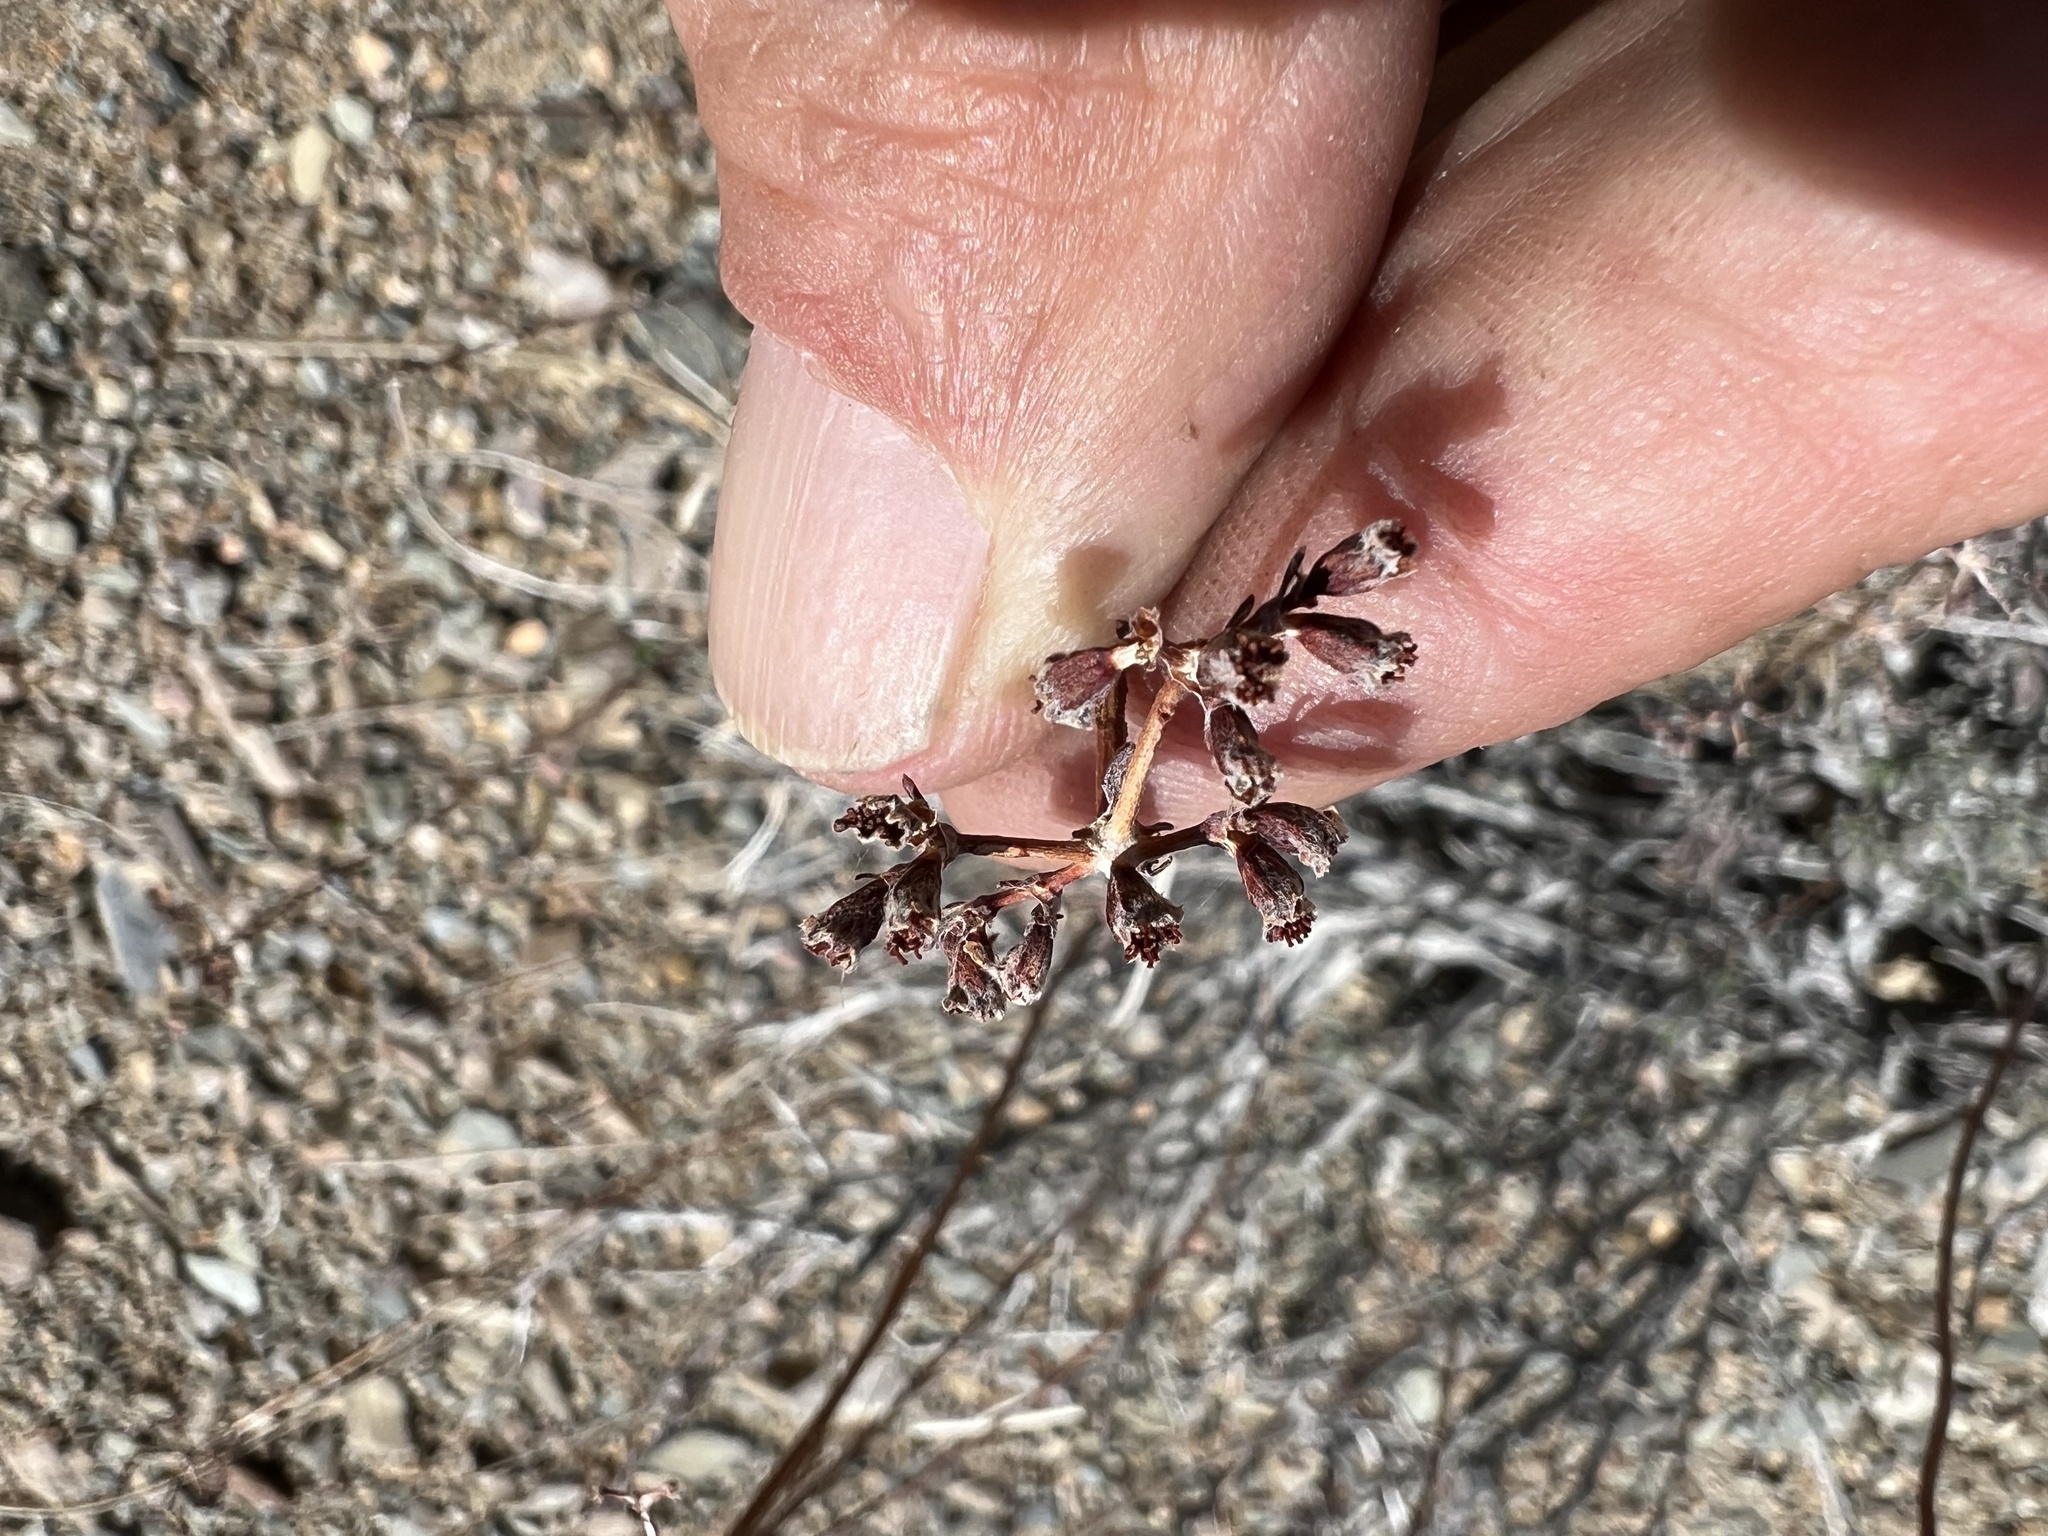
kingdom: Plantae
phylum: Tracheophyta
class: Magnoliopsida
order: Caryophyllales
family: Polygonaceae
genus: Eriogonum
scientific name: Eriogonum fasciculatum
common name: California wild buckwheat
